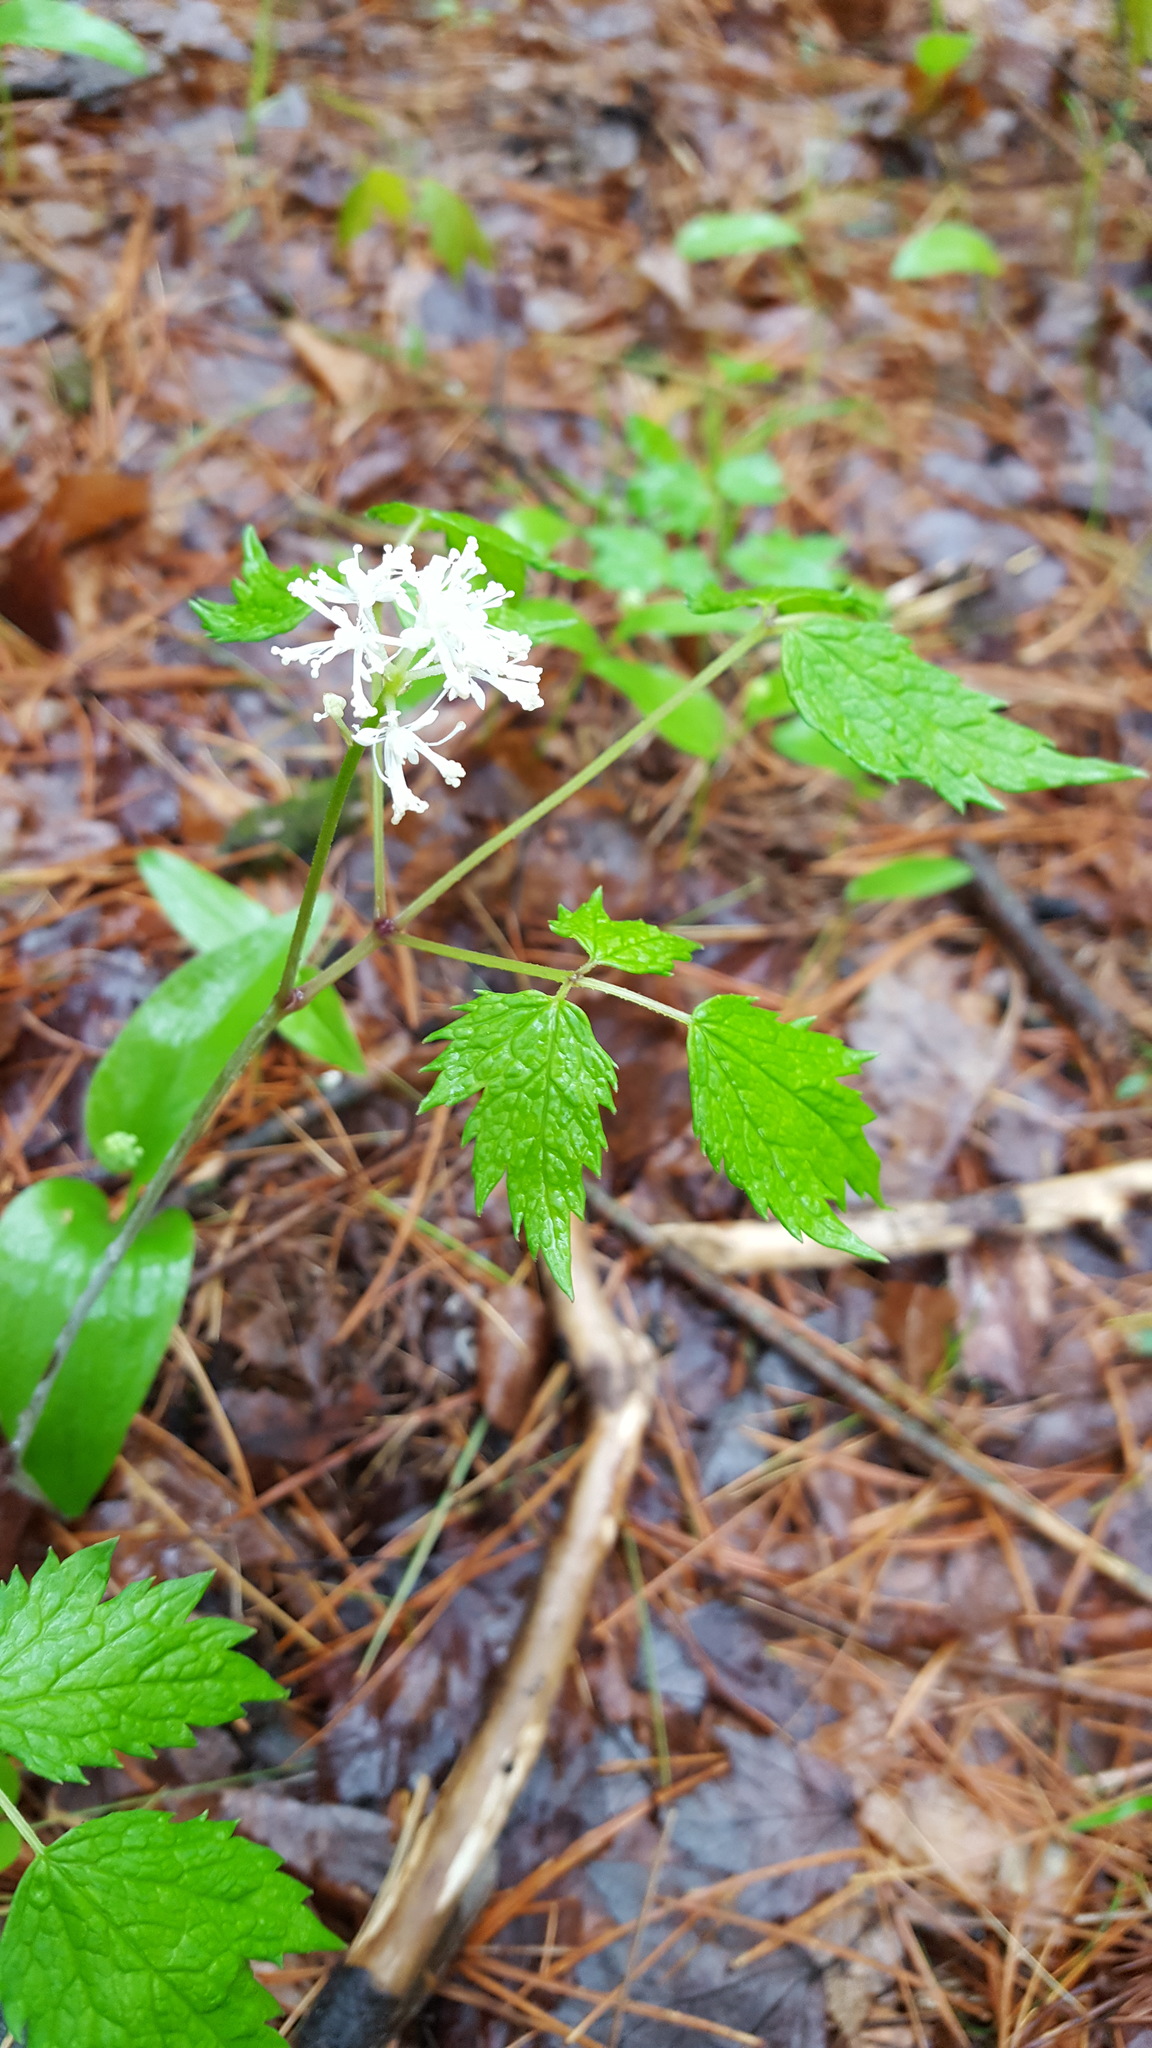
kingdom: Plantae
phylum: Tracheophyta
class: Magnoliopsida
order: Ranunculales
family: Ranunculaceae
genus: Actaea
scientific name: Actaea pachypoda
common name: Doll's-eyes
